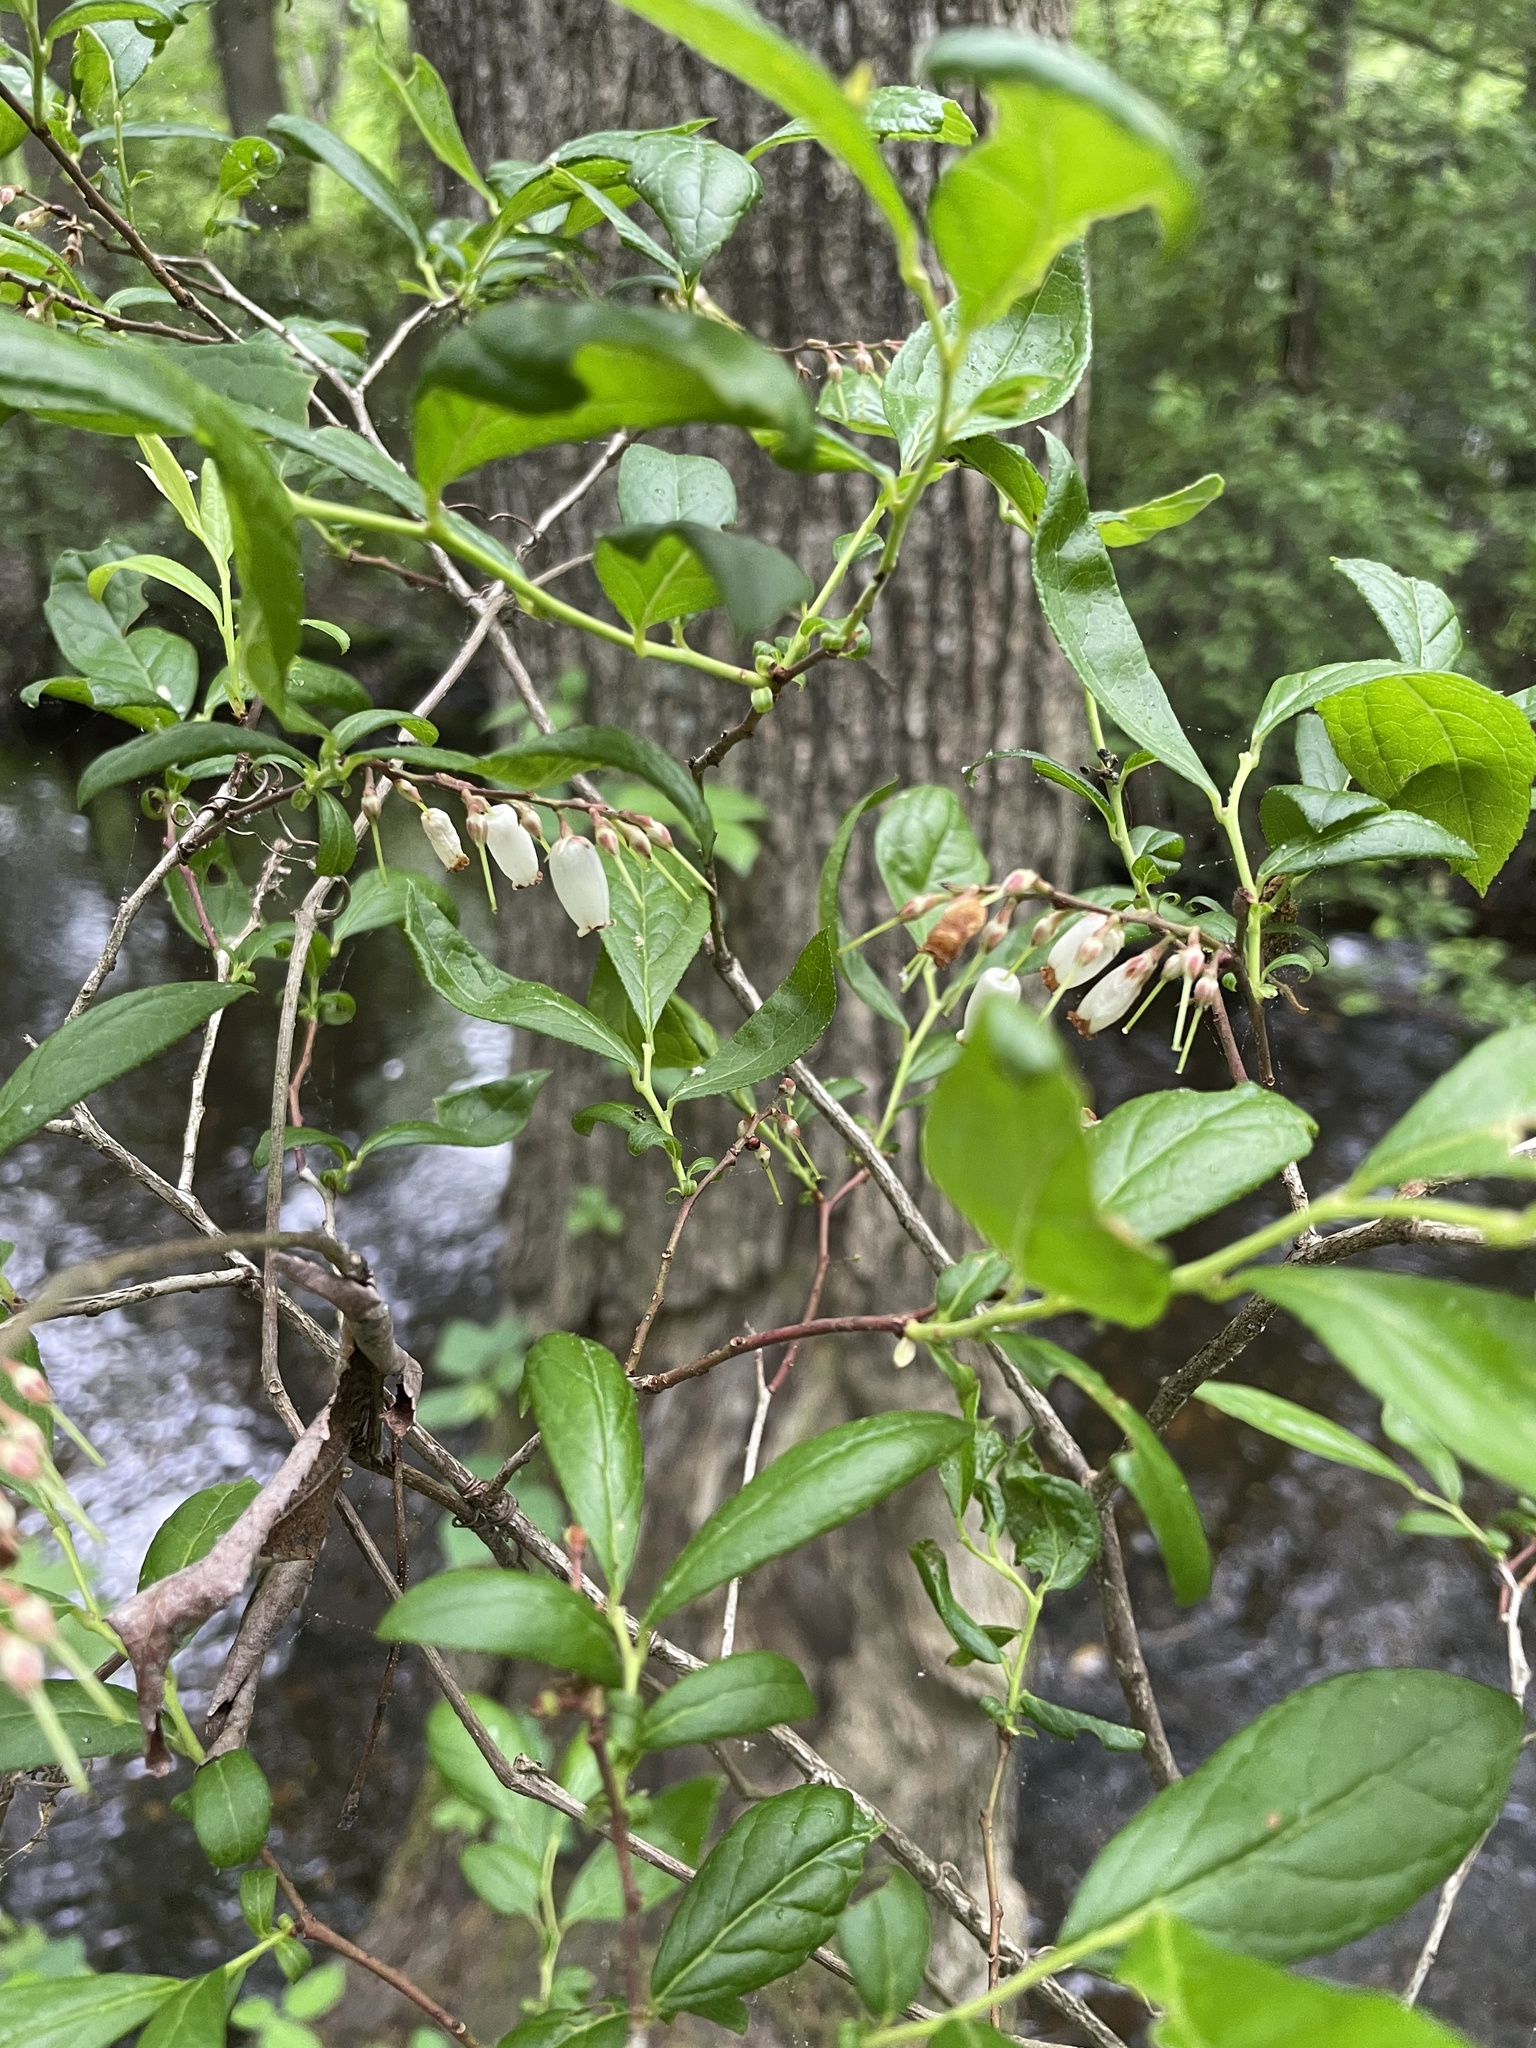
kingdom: Plantae
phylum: Tracheophyta
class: Magnoliopsida
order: Ericales
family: Ericaceae
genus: Eubotrys
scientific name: Eubotrys racemosa
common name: Fetterbush
